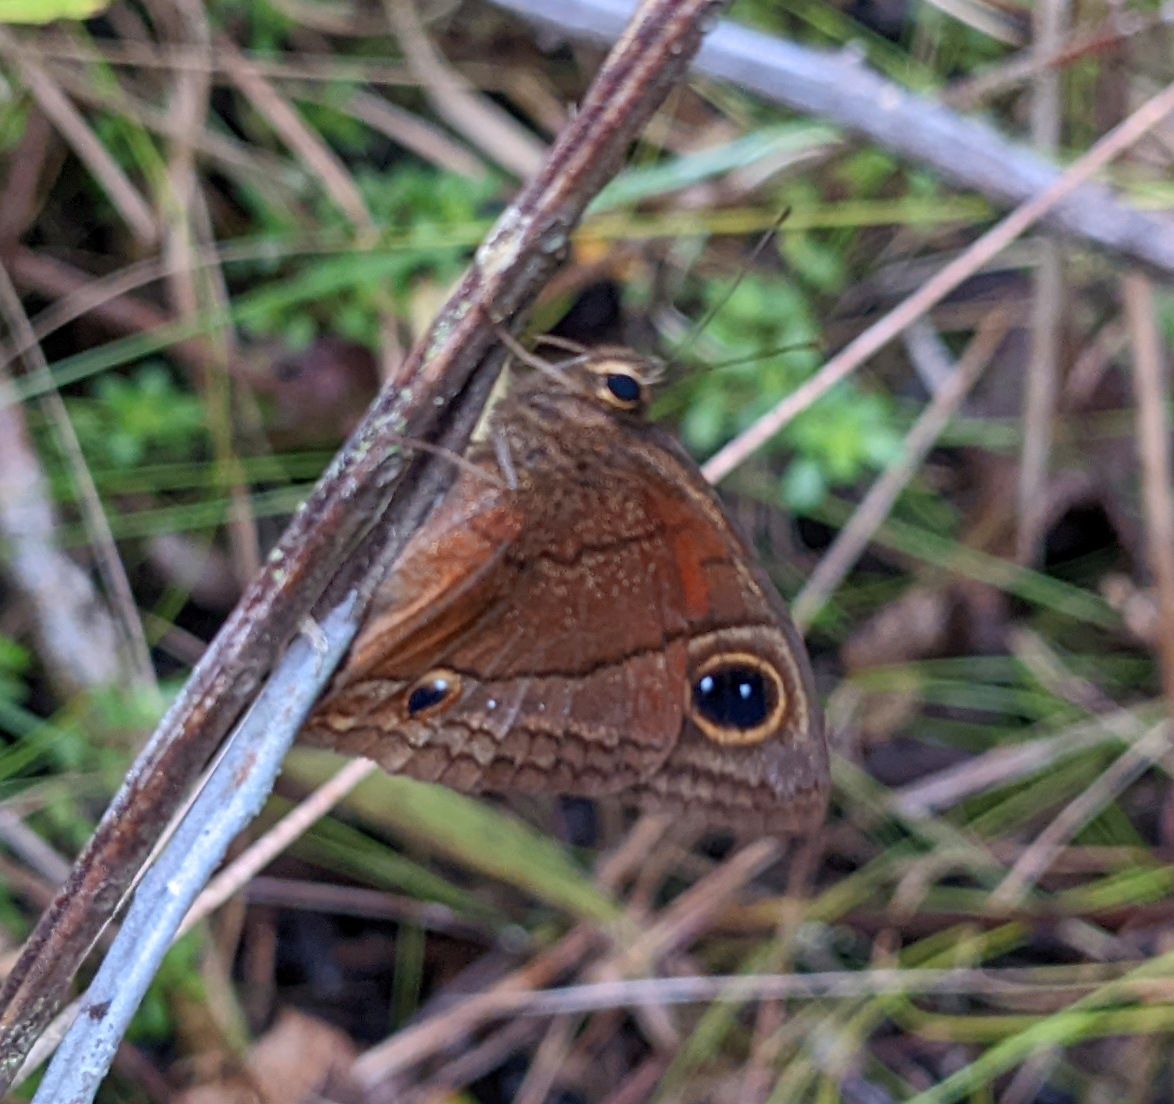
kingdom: Animalia
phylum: Arthropoda
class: Insecta
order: Lepidoptera
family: Nymphalidae
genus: Calisto
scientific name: Calisto nubila
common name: Puerto rican calisto
